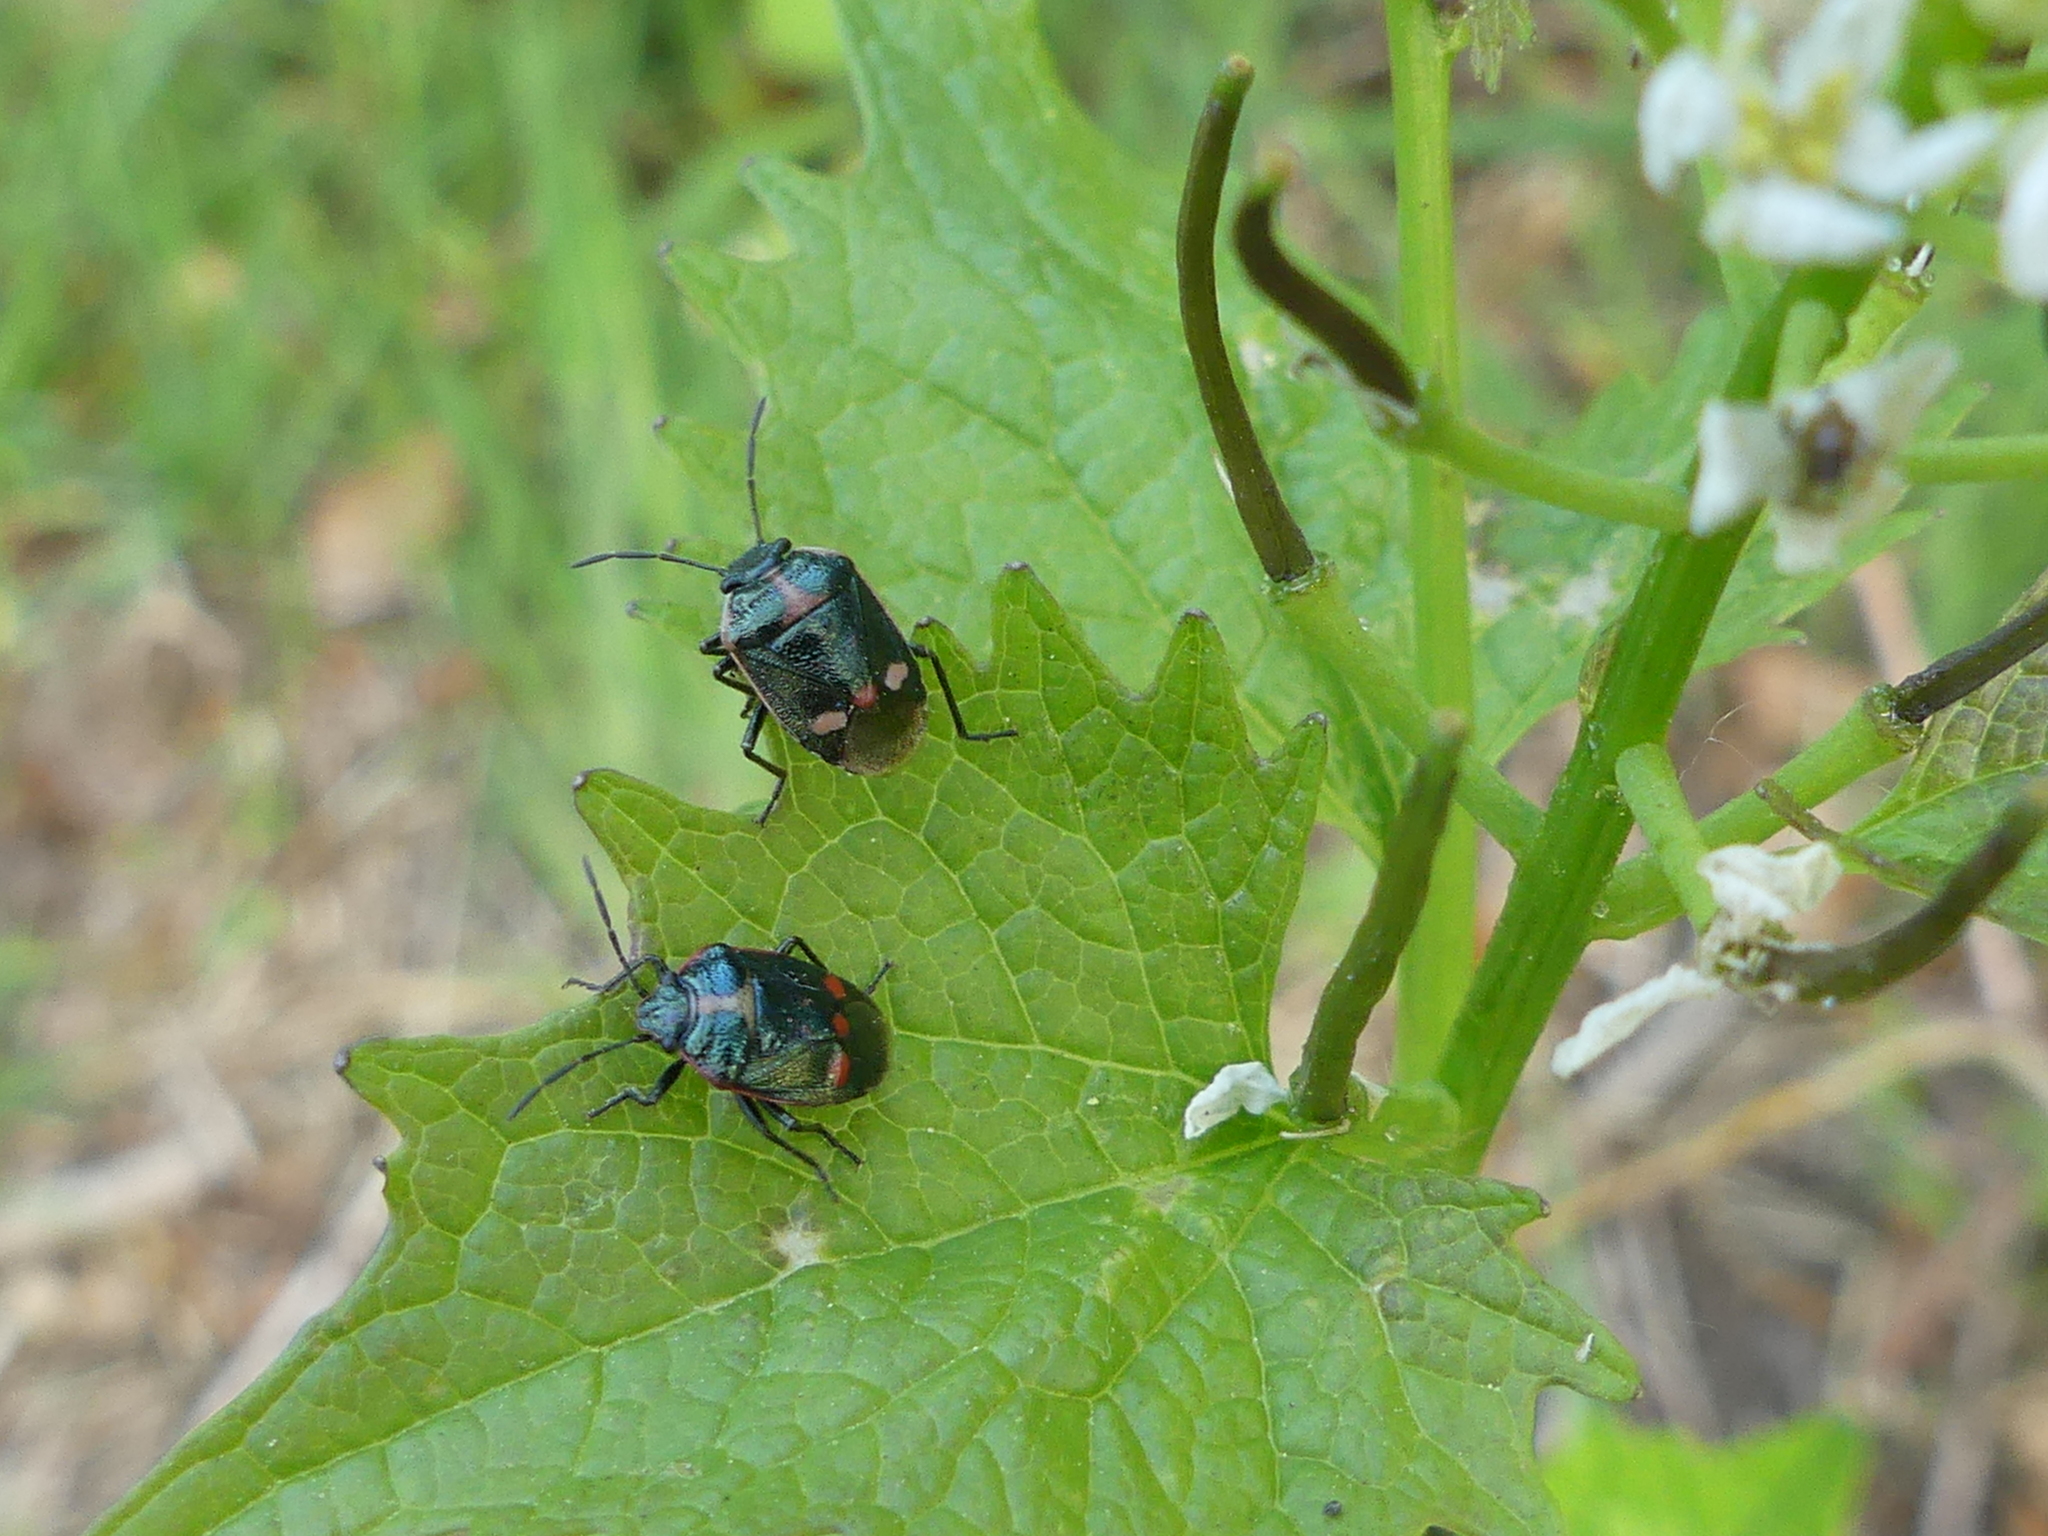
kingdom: Animalia
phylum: Arthropoda
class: Insecta
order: Hemiptera
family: Pentatomidae
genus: Eurydema
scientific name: Eurydema oleracea
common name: Cabbage bug
